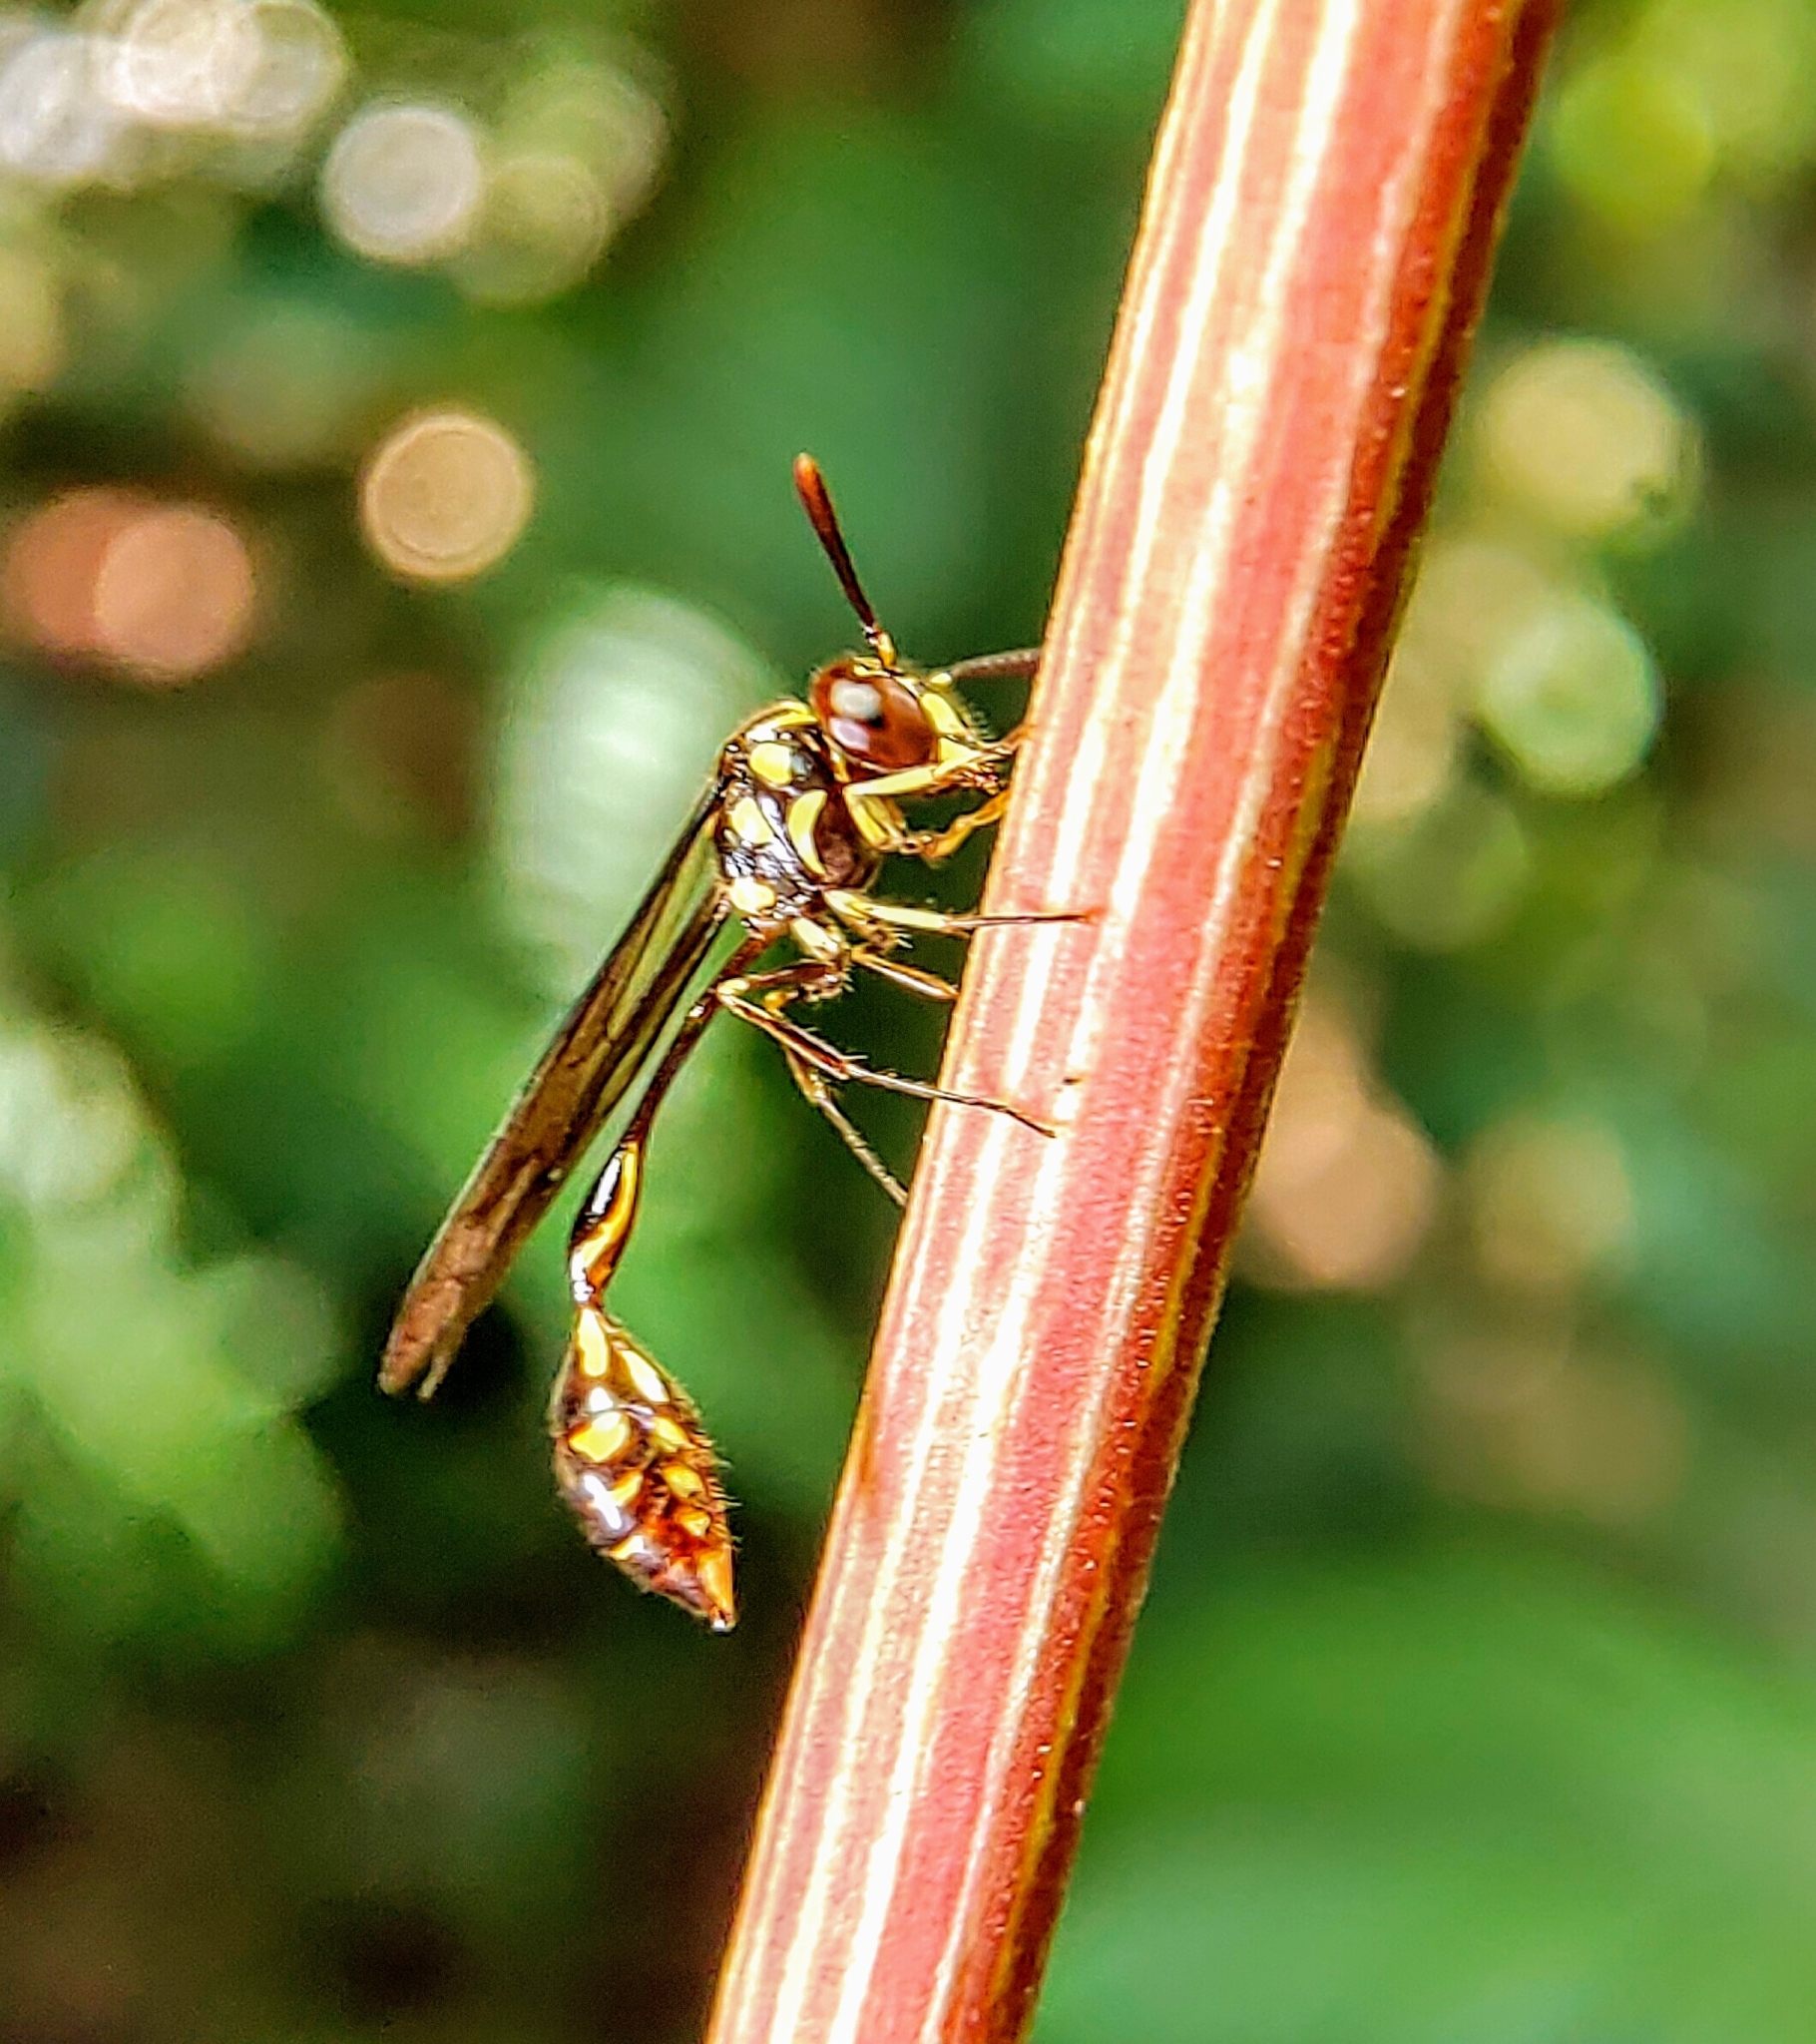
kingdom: Animalia
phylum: Arthropoda
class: Insecta
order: Hymenoptera
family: Vespidae
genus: Liostenogaster
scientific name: Liostenogaster nitidipennis
